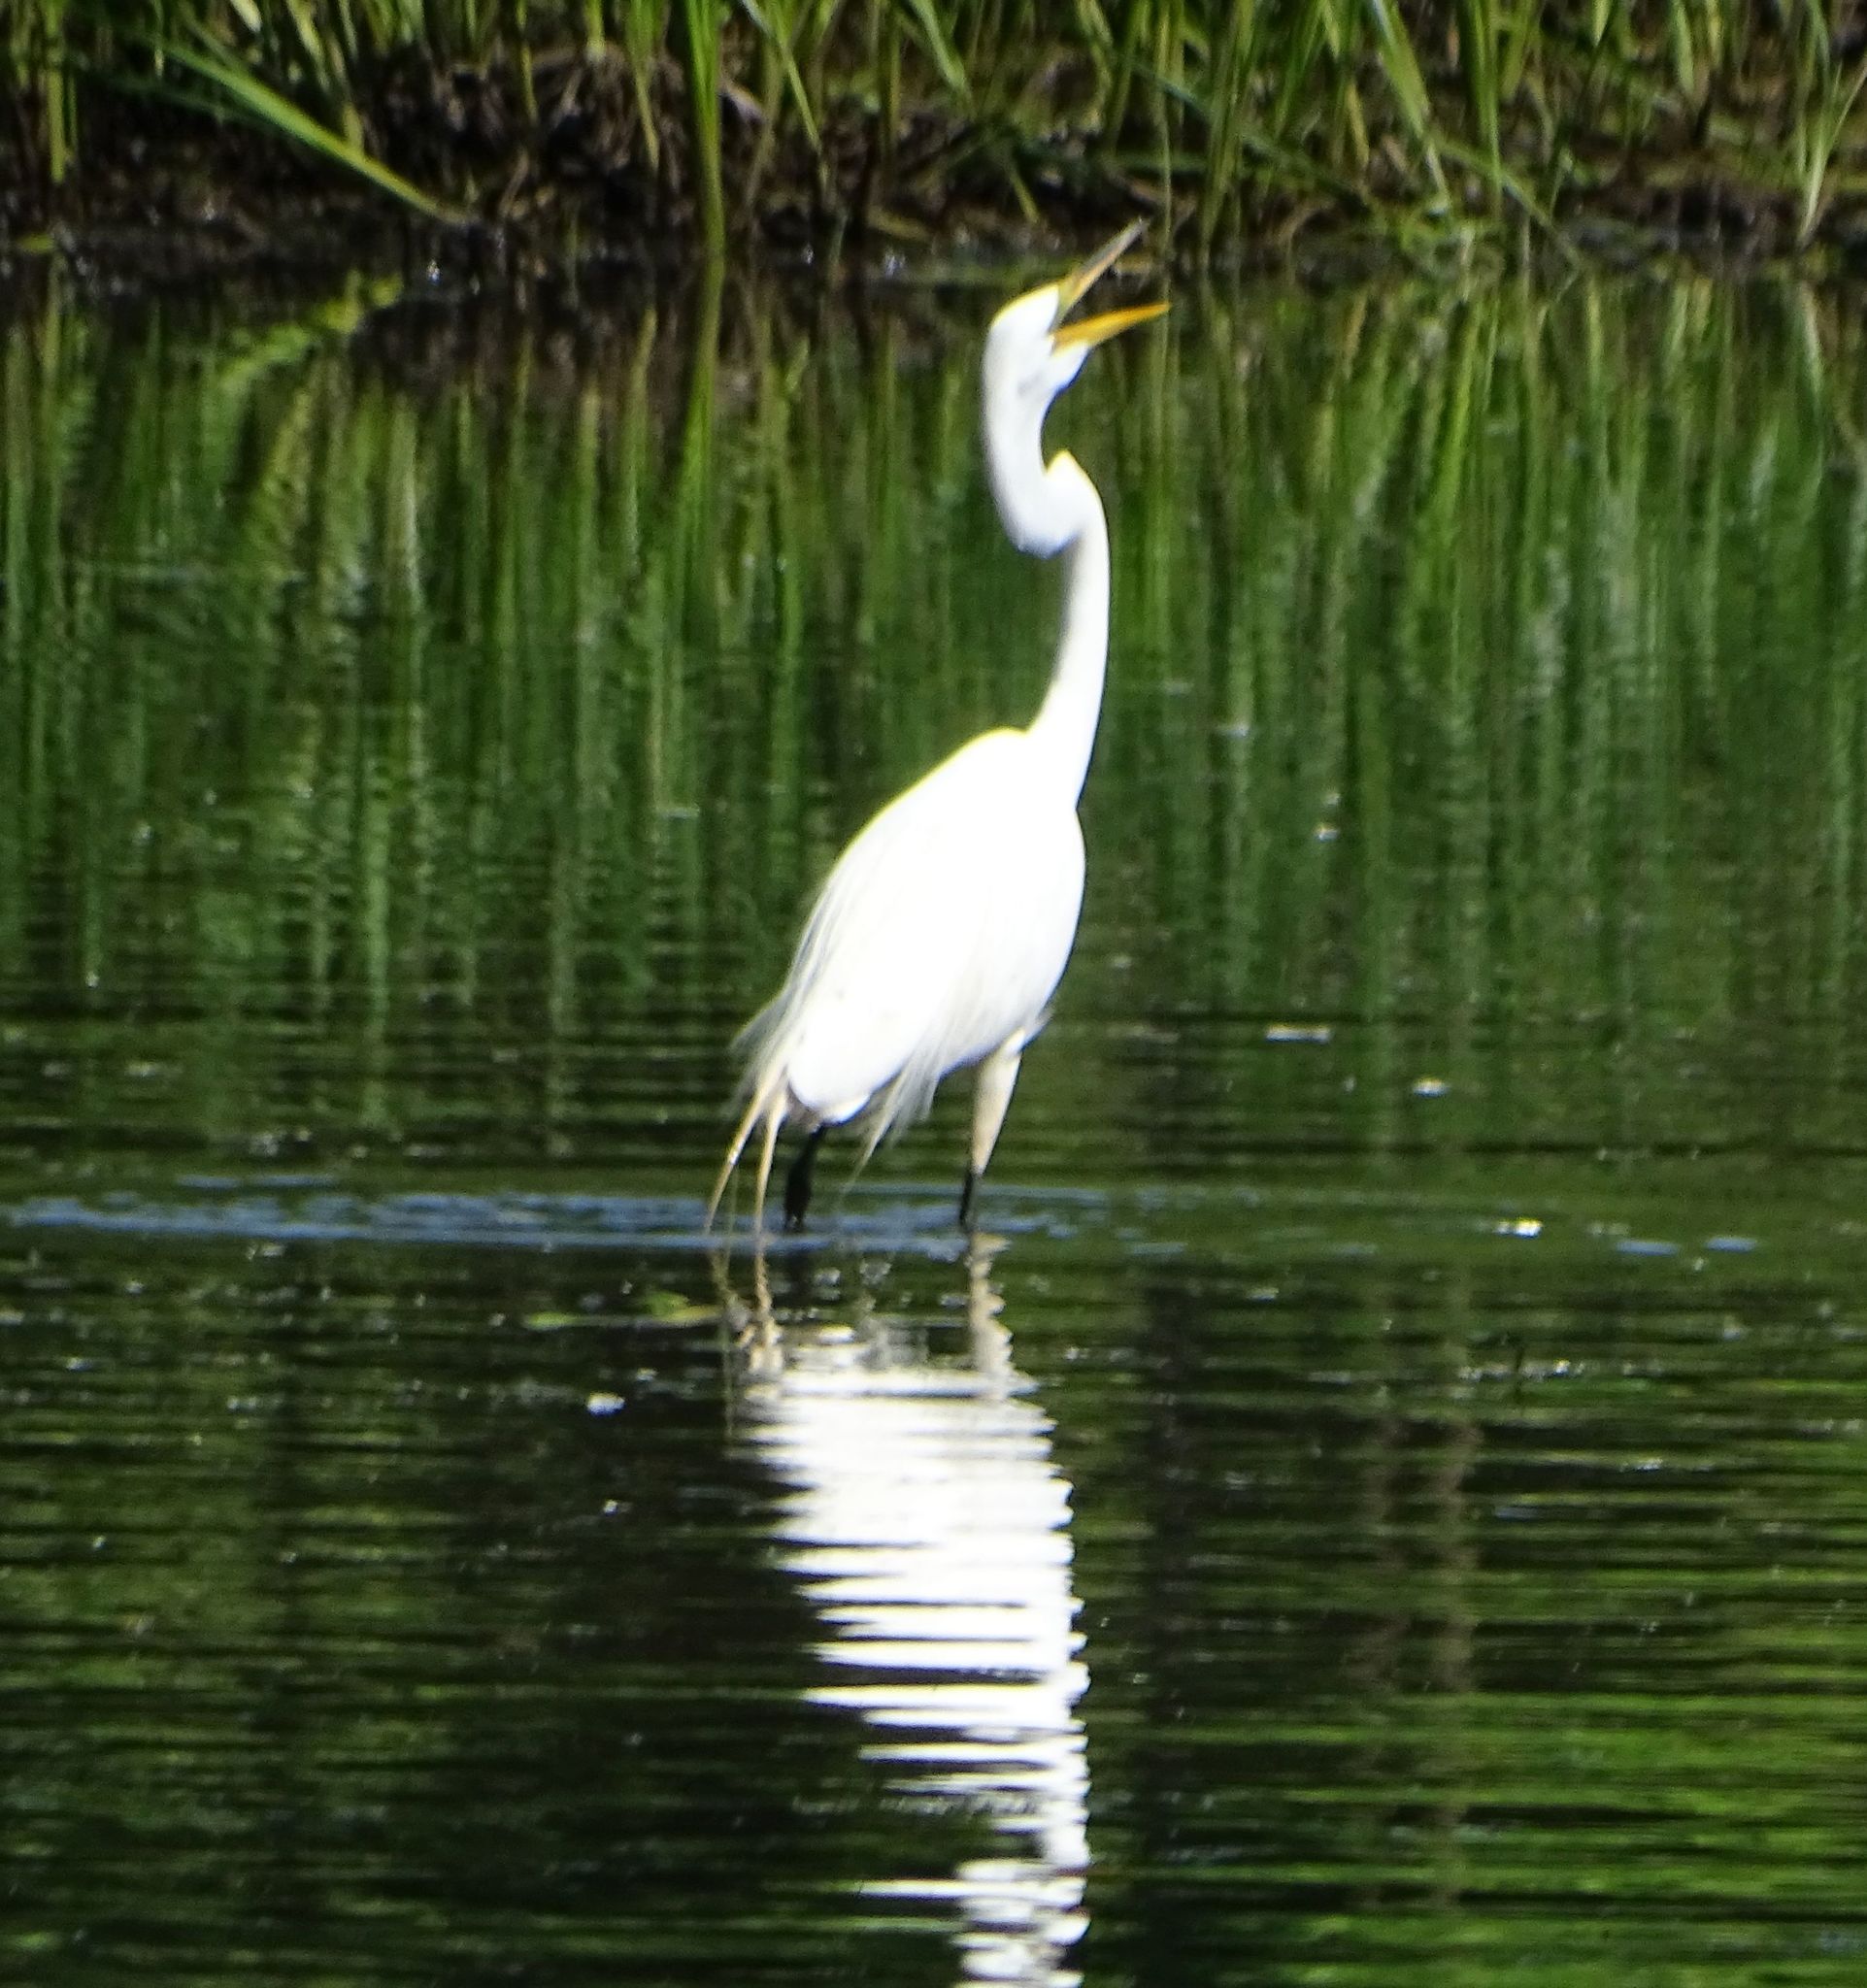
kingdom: Animalia
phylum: Chordata
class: Aves
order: Pelecaniformes
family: Ardeidae
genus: Ardea
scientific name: Ardea alba
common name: Great egret
